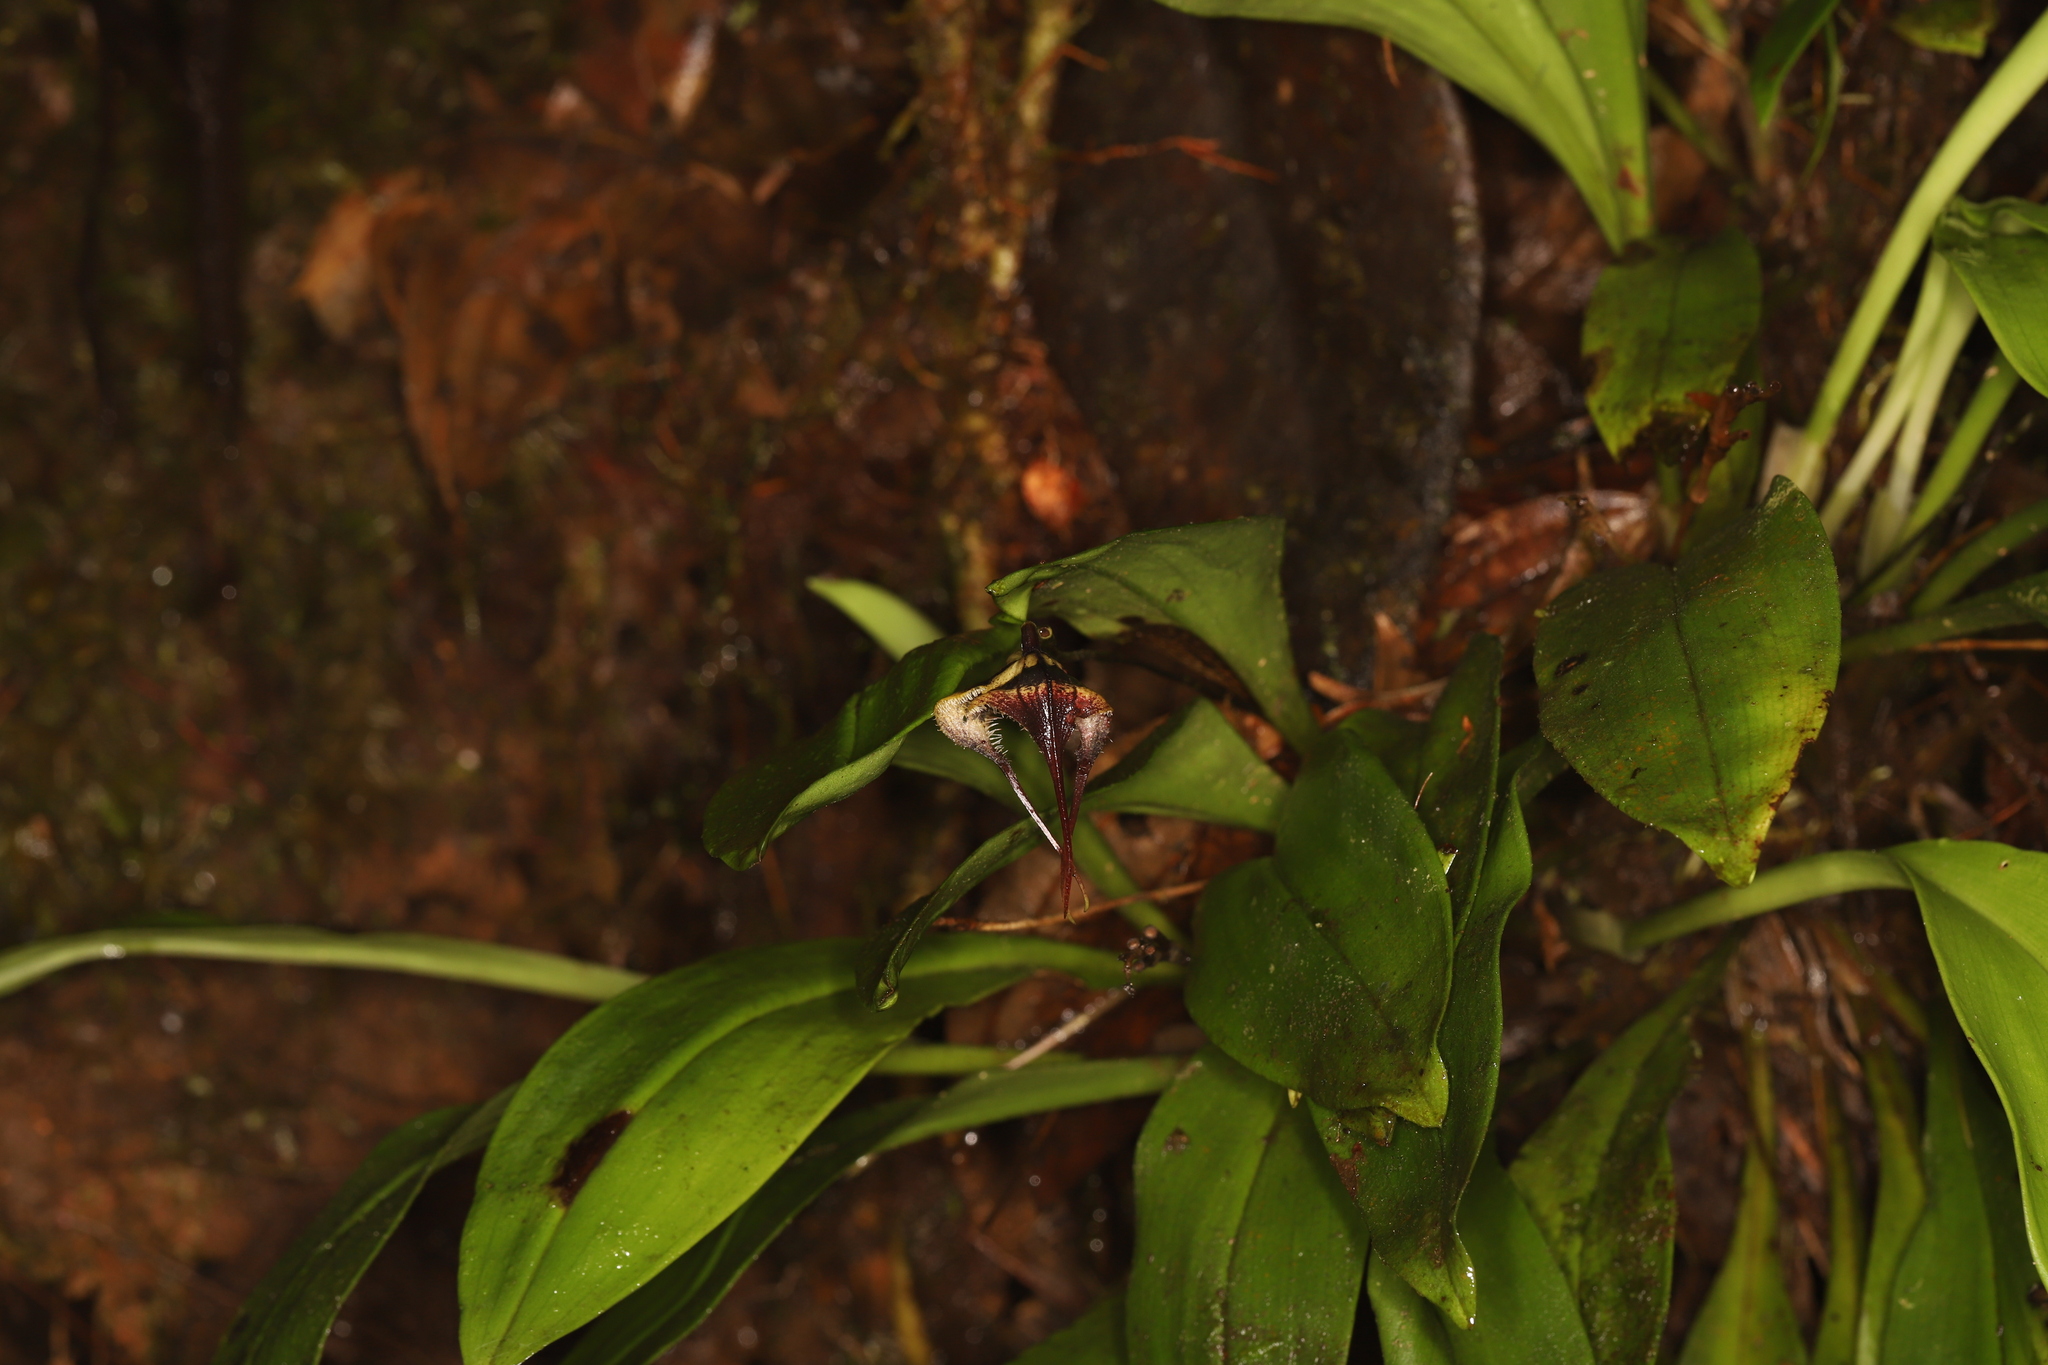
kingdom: Plantae
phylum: Tracheophyta
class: Liliopsida
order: Asparagales
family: Orchidaceae
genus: Dracula
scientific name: Dracula carcinopsis
